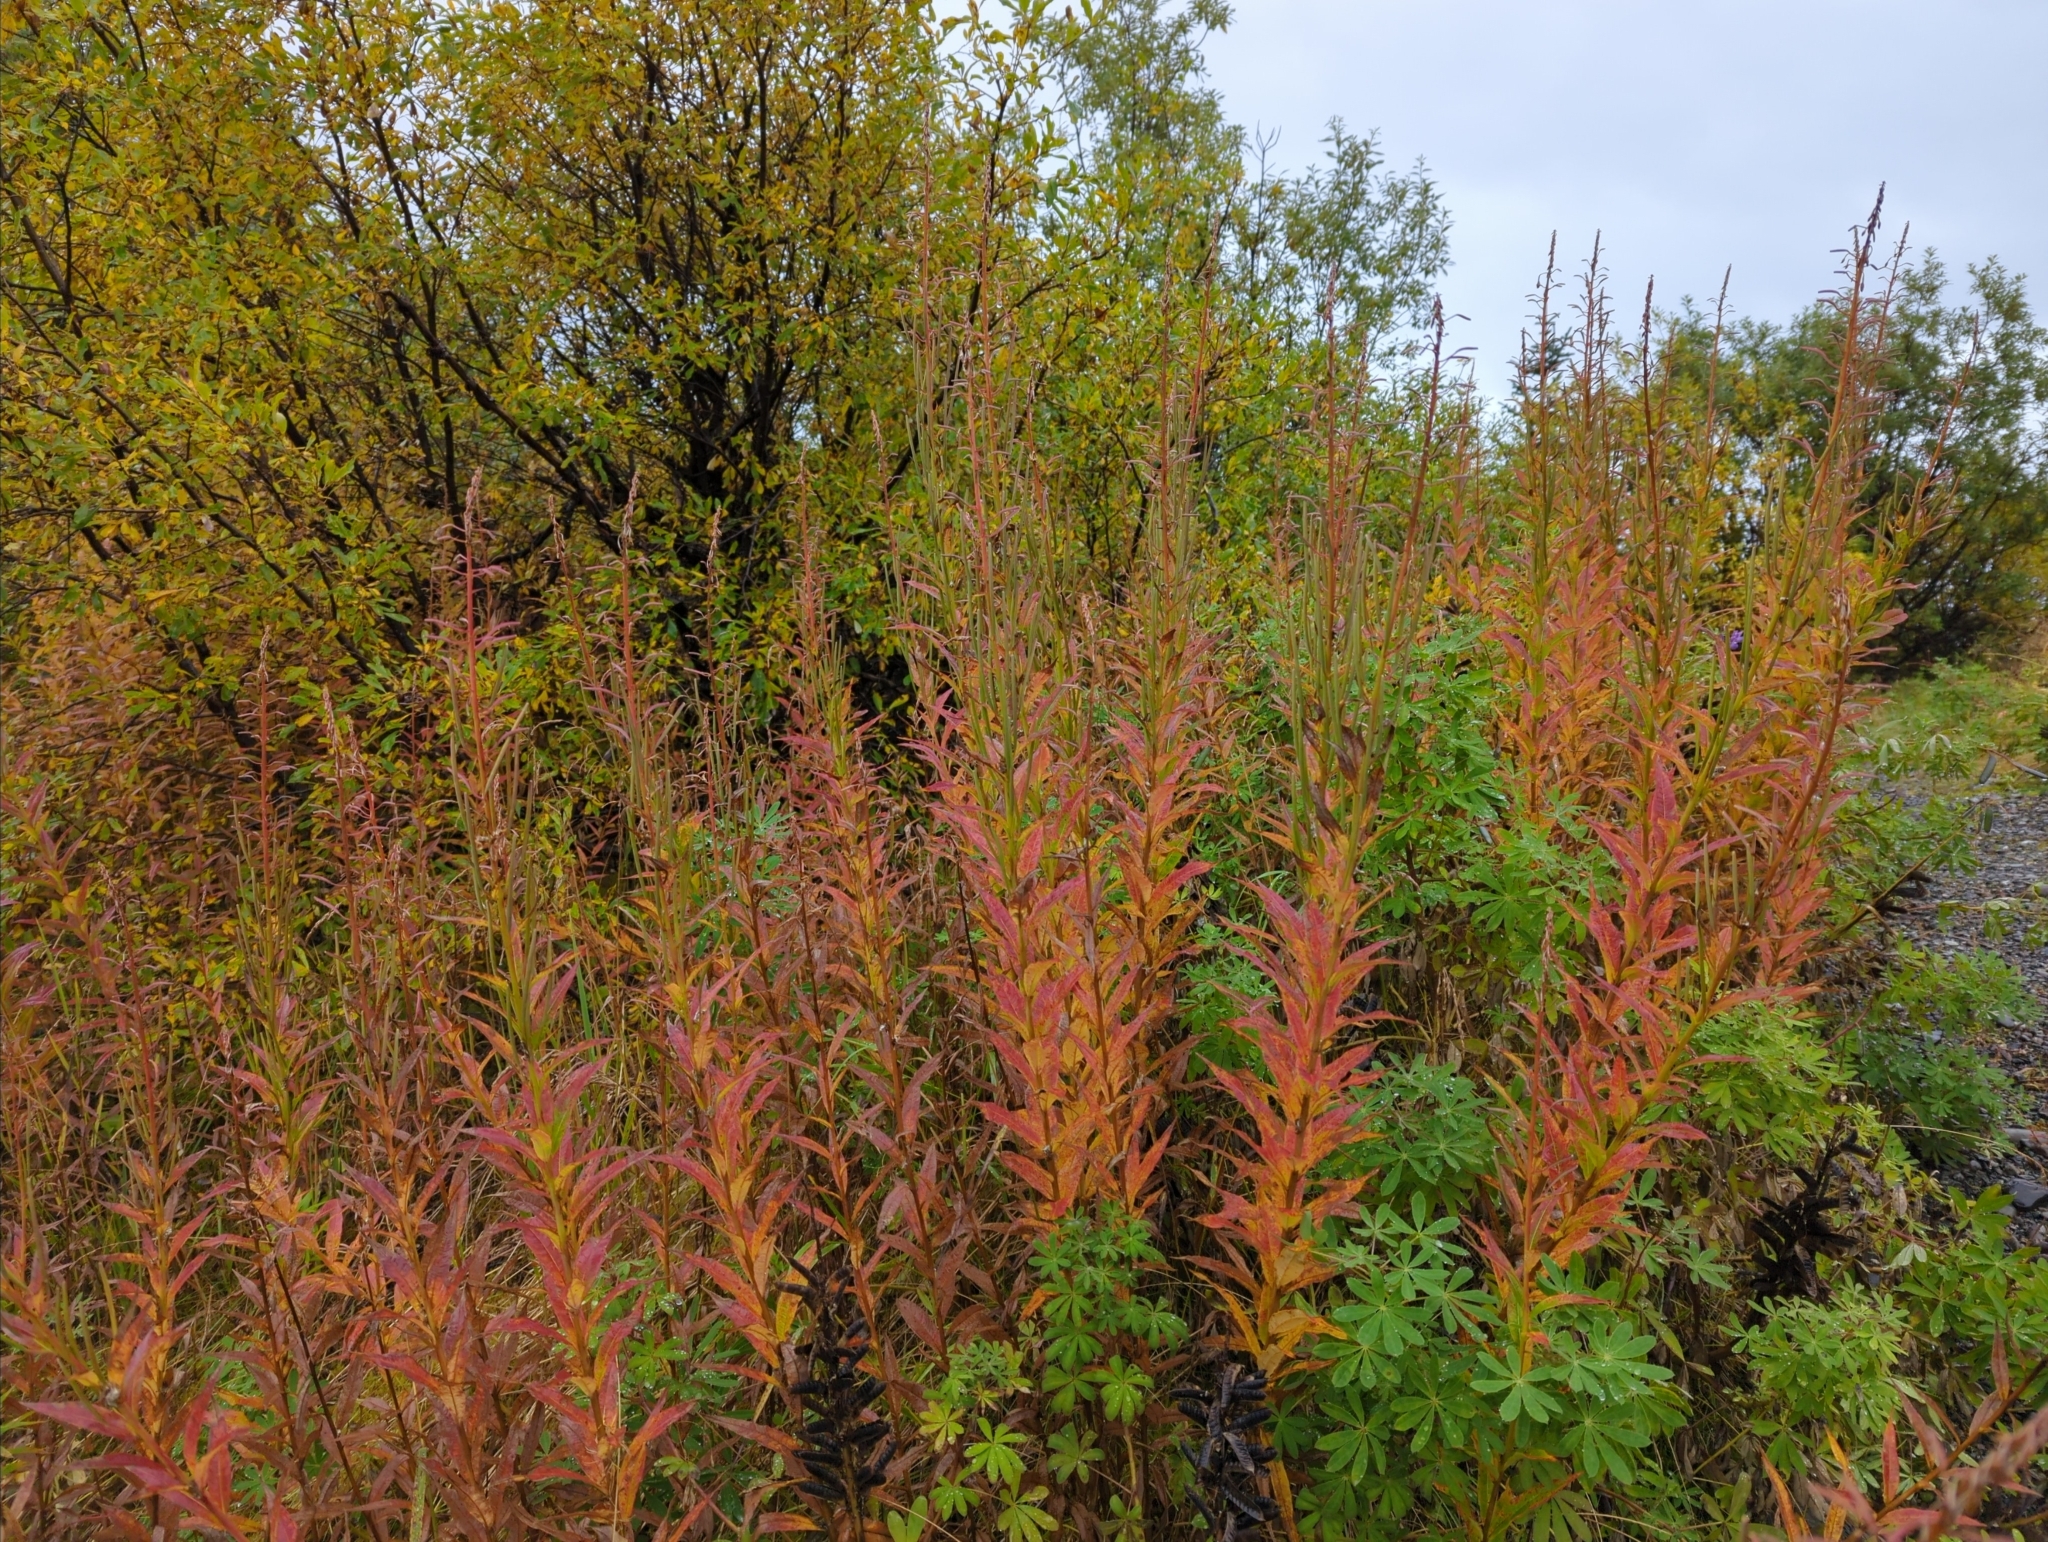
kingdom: Plantae
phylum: Tracheophyta
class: Magnoliopsida
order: Myrtales
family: Onagraceae
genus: Chamaenerion
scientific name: Chamaenerion angustifolium
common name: Fireweed
